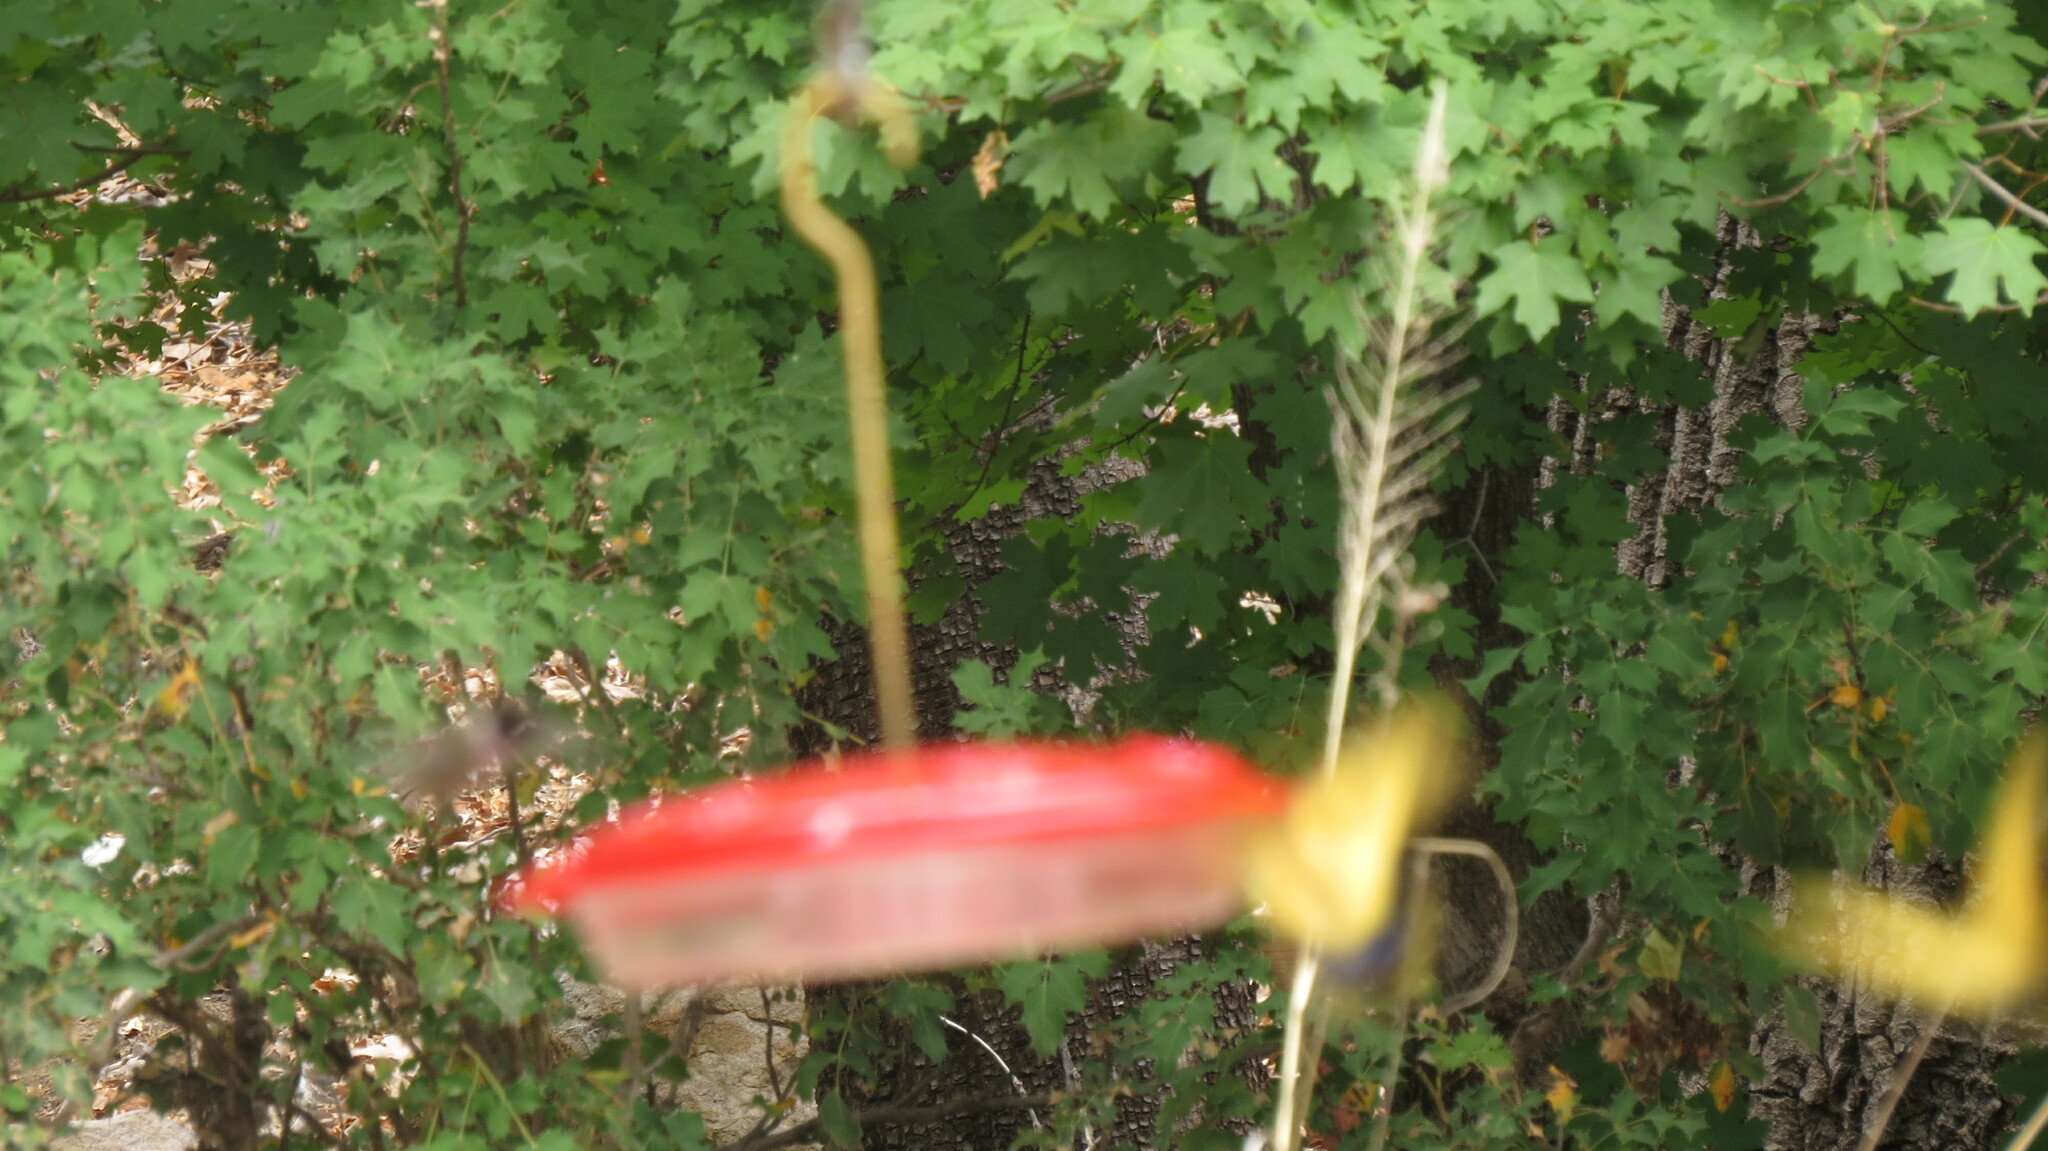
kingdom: Animalia
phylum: Arthropoda
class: Insecta
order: Lepidoptera
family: Papilionidae
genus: Papilio
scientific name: Papilio multicaudata
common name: Two-tailed tiger swallowtail
